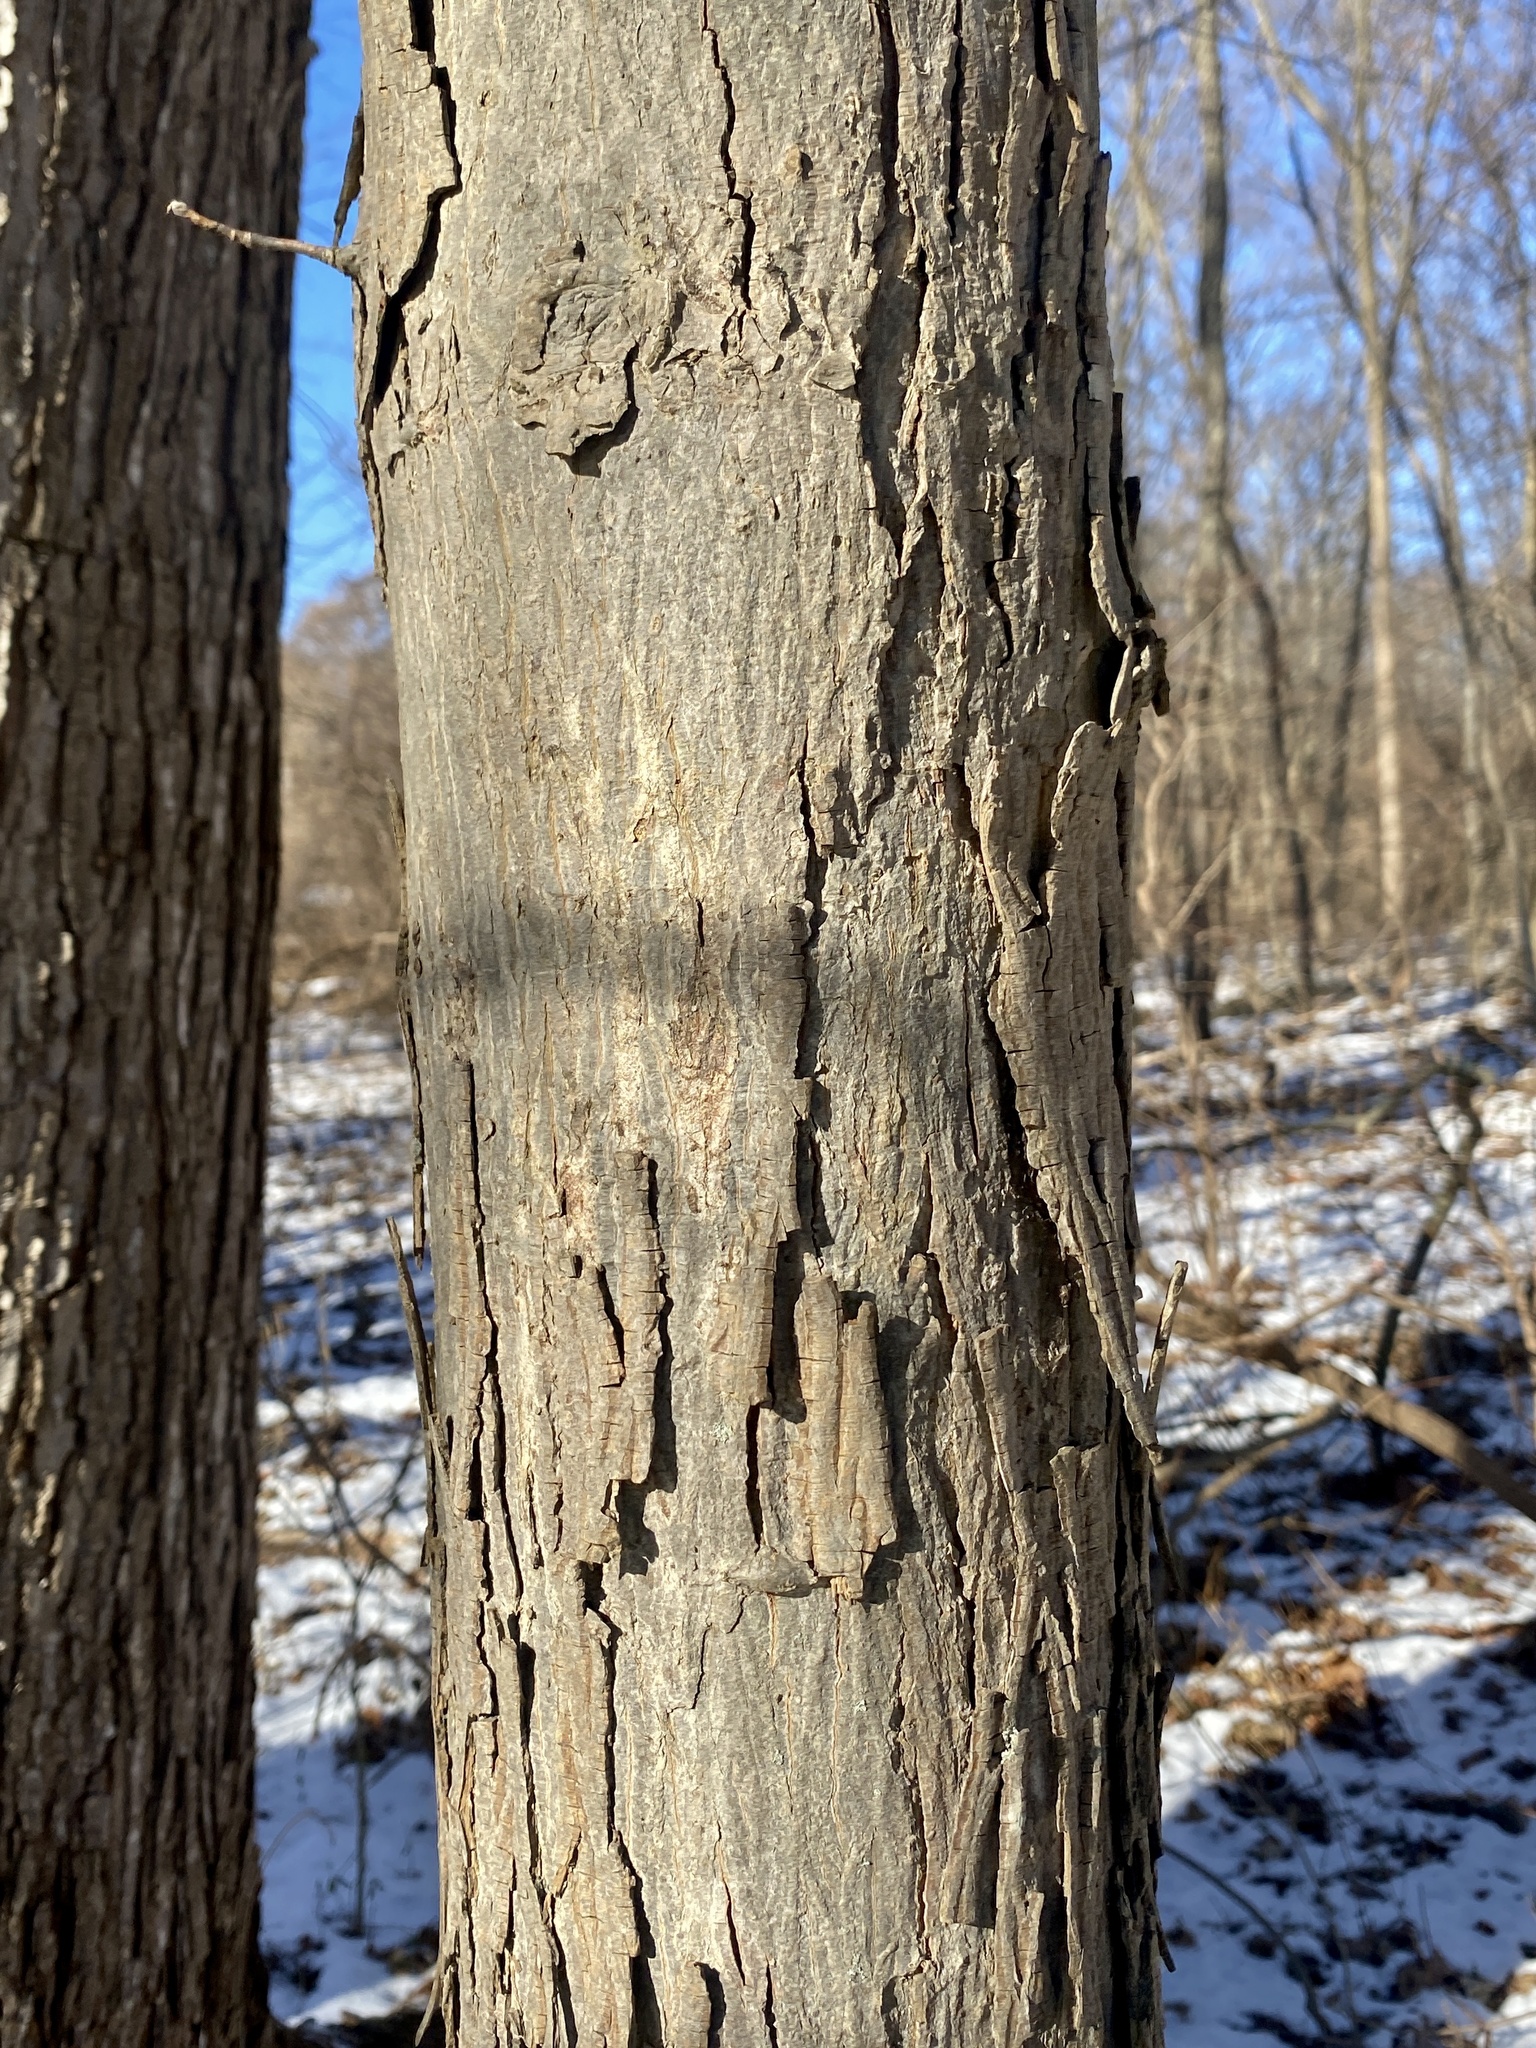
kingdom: Plantae
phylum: Tracheophyta
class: Magnoliopsida
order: Fagales
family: Juglandaceae
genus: Carya
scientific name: Carya ovata
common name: Shagbark hickory
